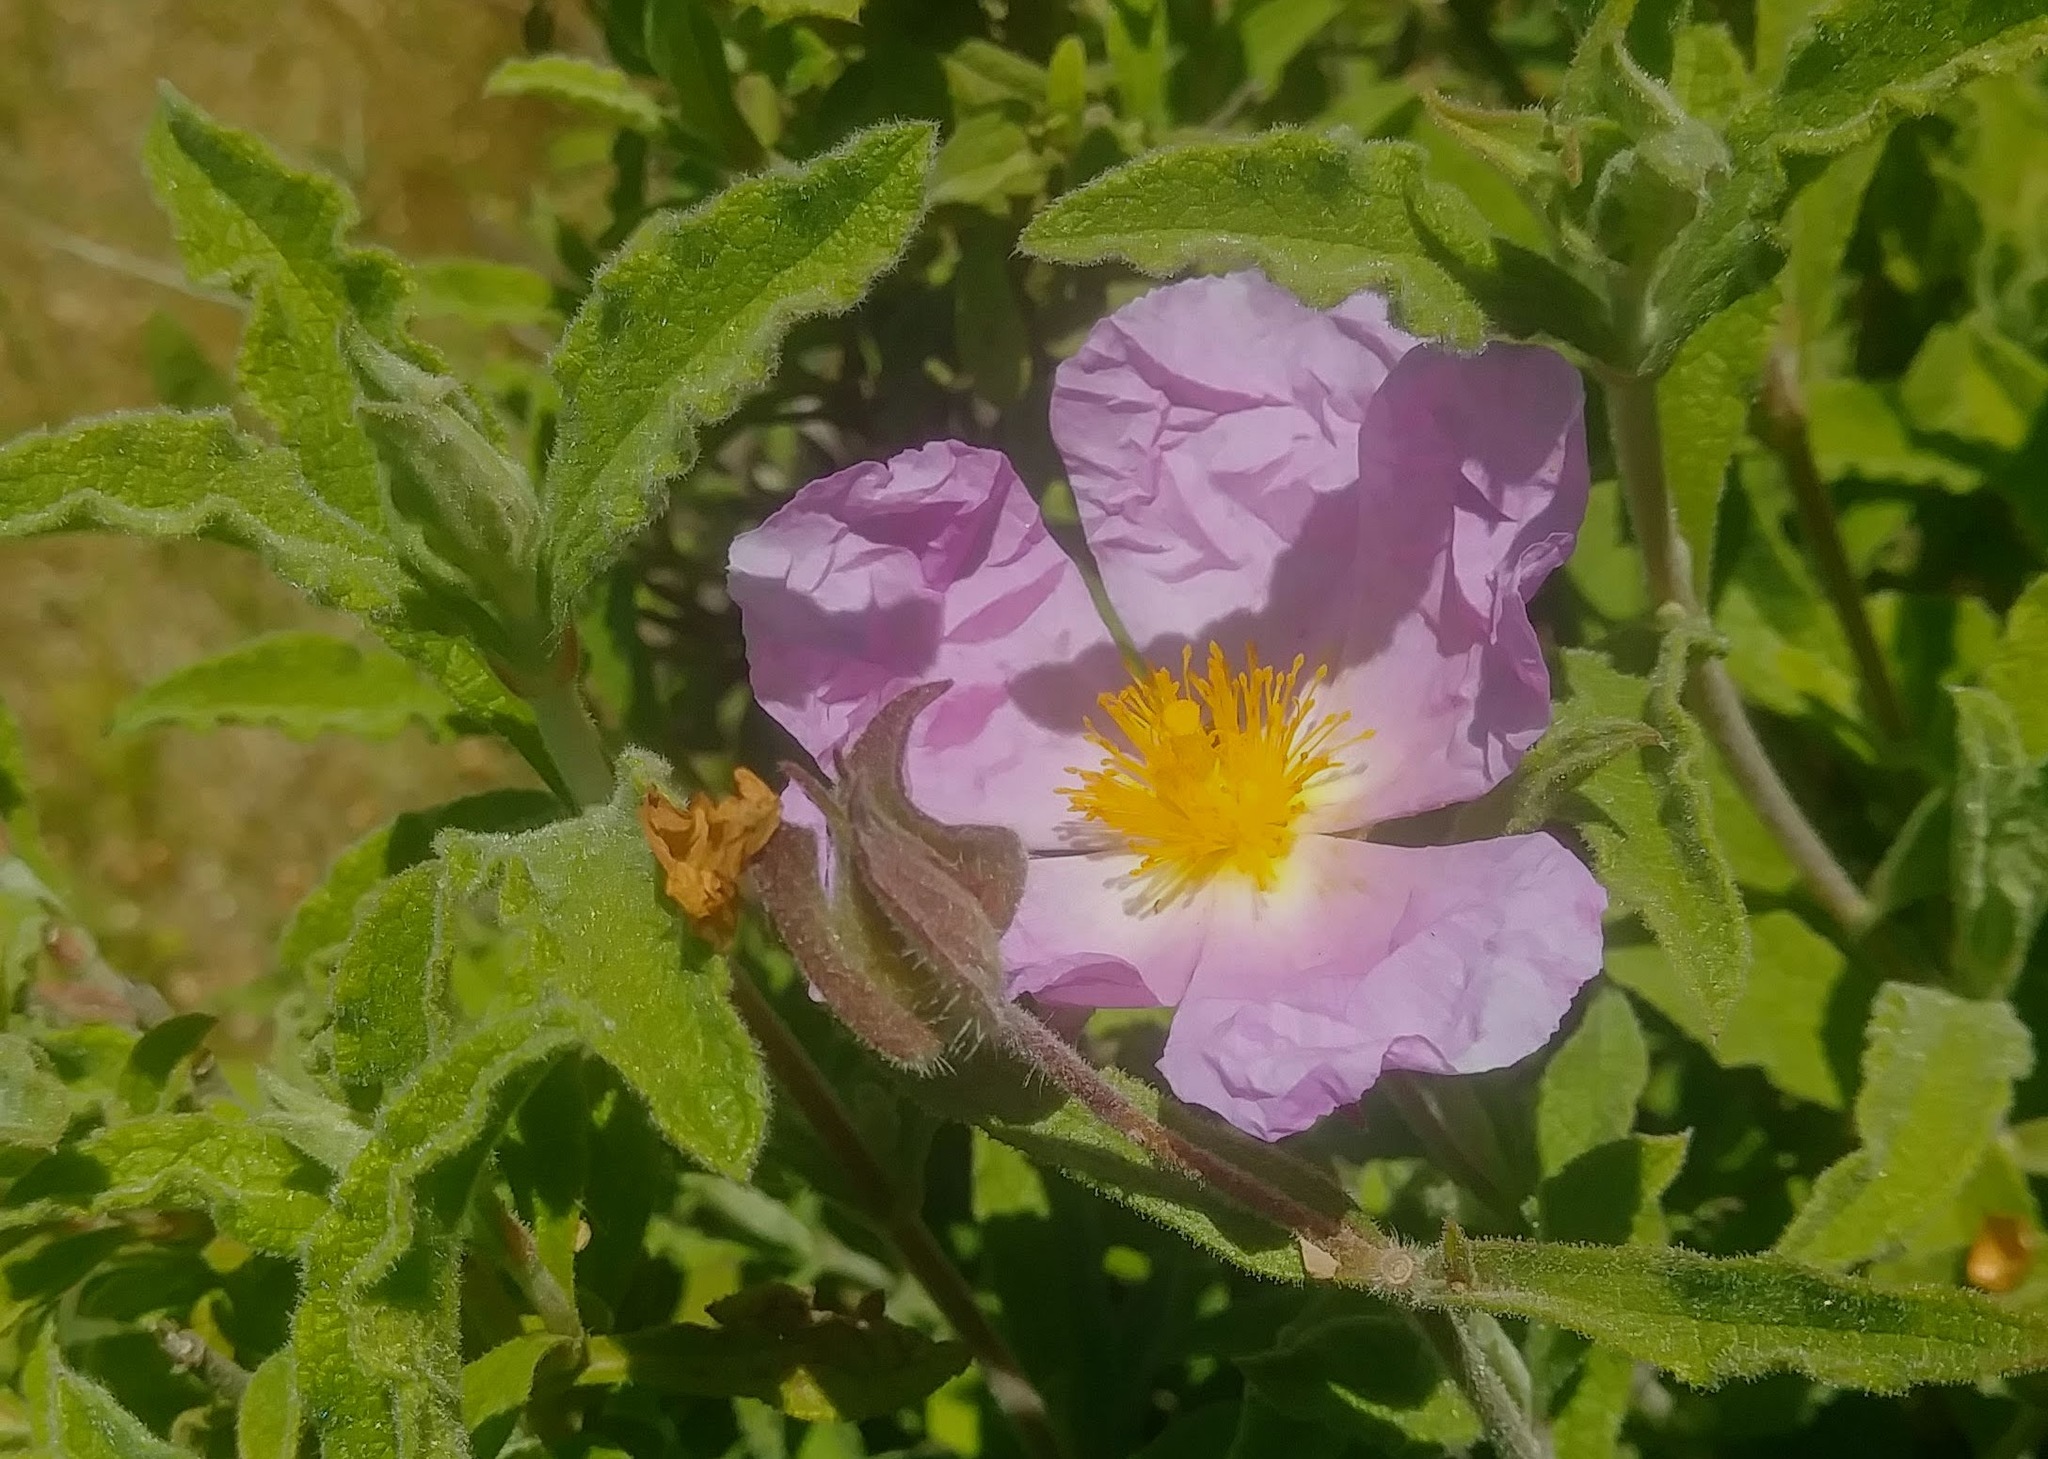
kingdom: Plantae
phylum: Tracheophyta
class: Magnoliopsida
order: Malvales
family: Cistaceae
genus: Cistus
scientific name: Cistus creticus
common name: Cretan rockrose
